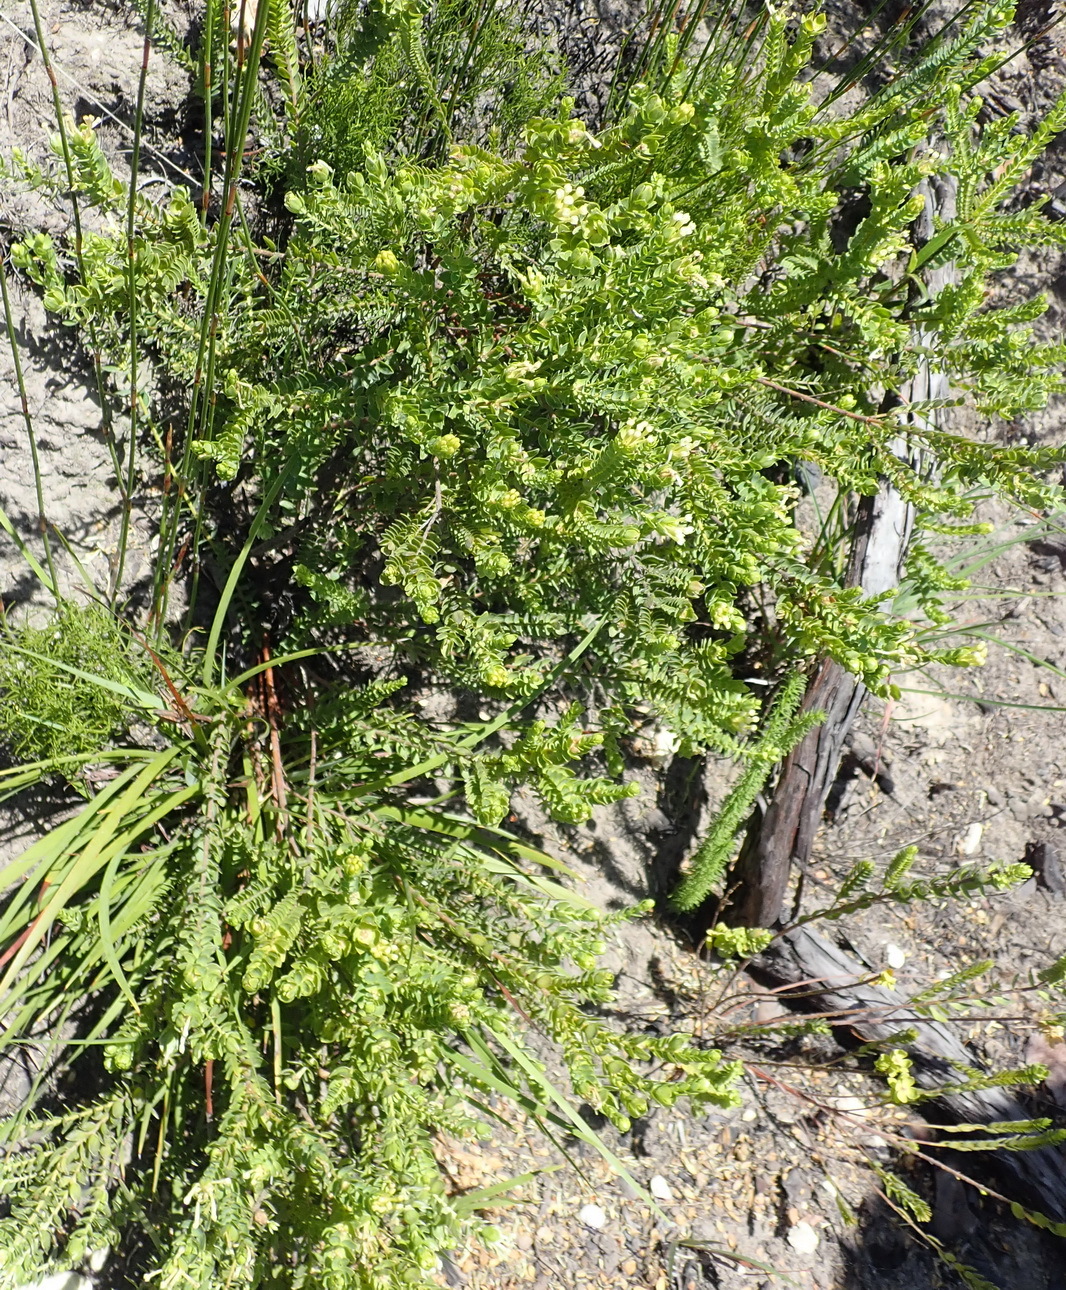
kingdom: Plantae
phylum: Tracheophyta
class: Magnoliopsida
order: Malvales
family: Thymelaeaceae
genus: Gnidia
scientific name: Gnidia chrysophylla
